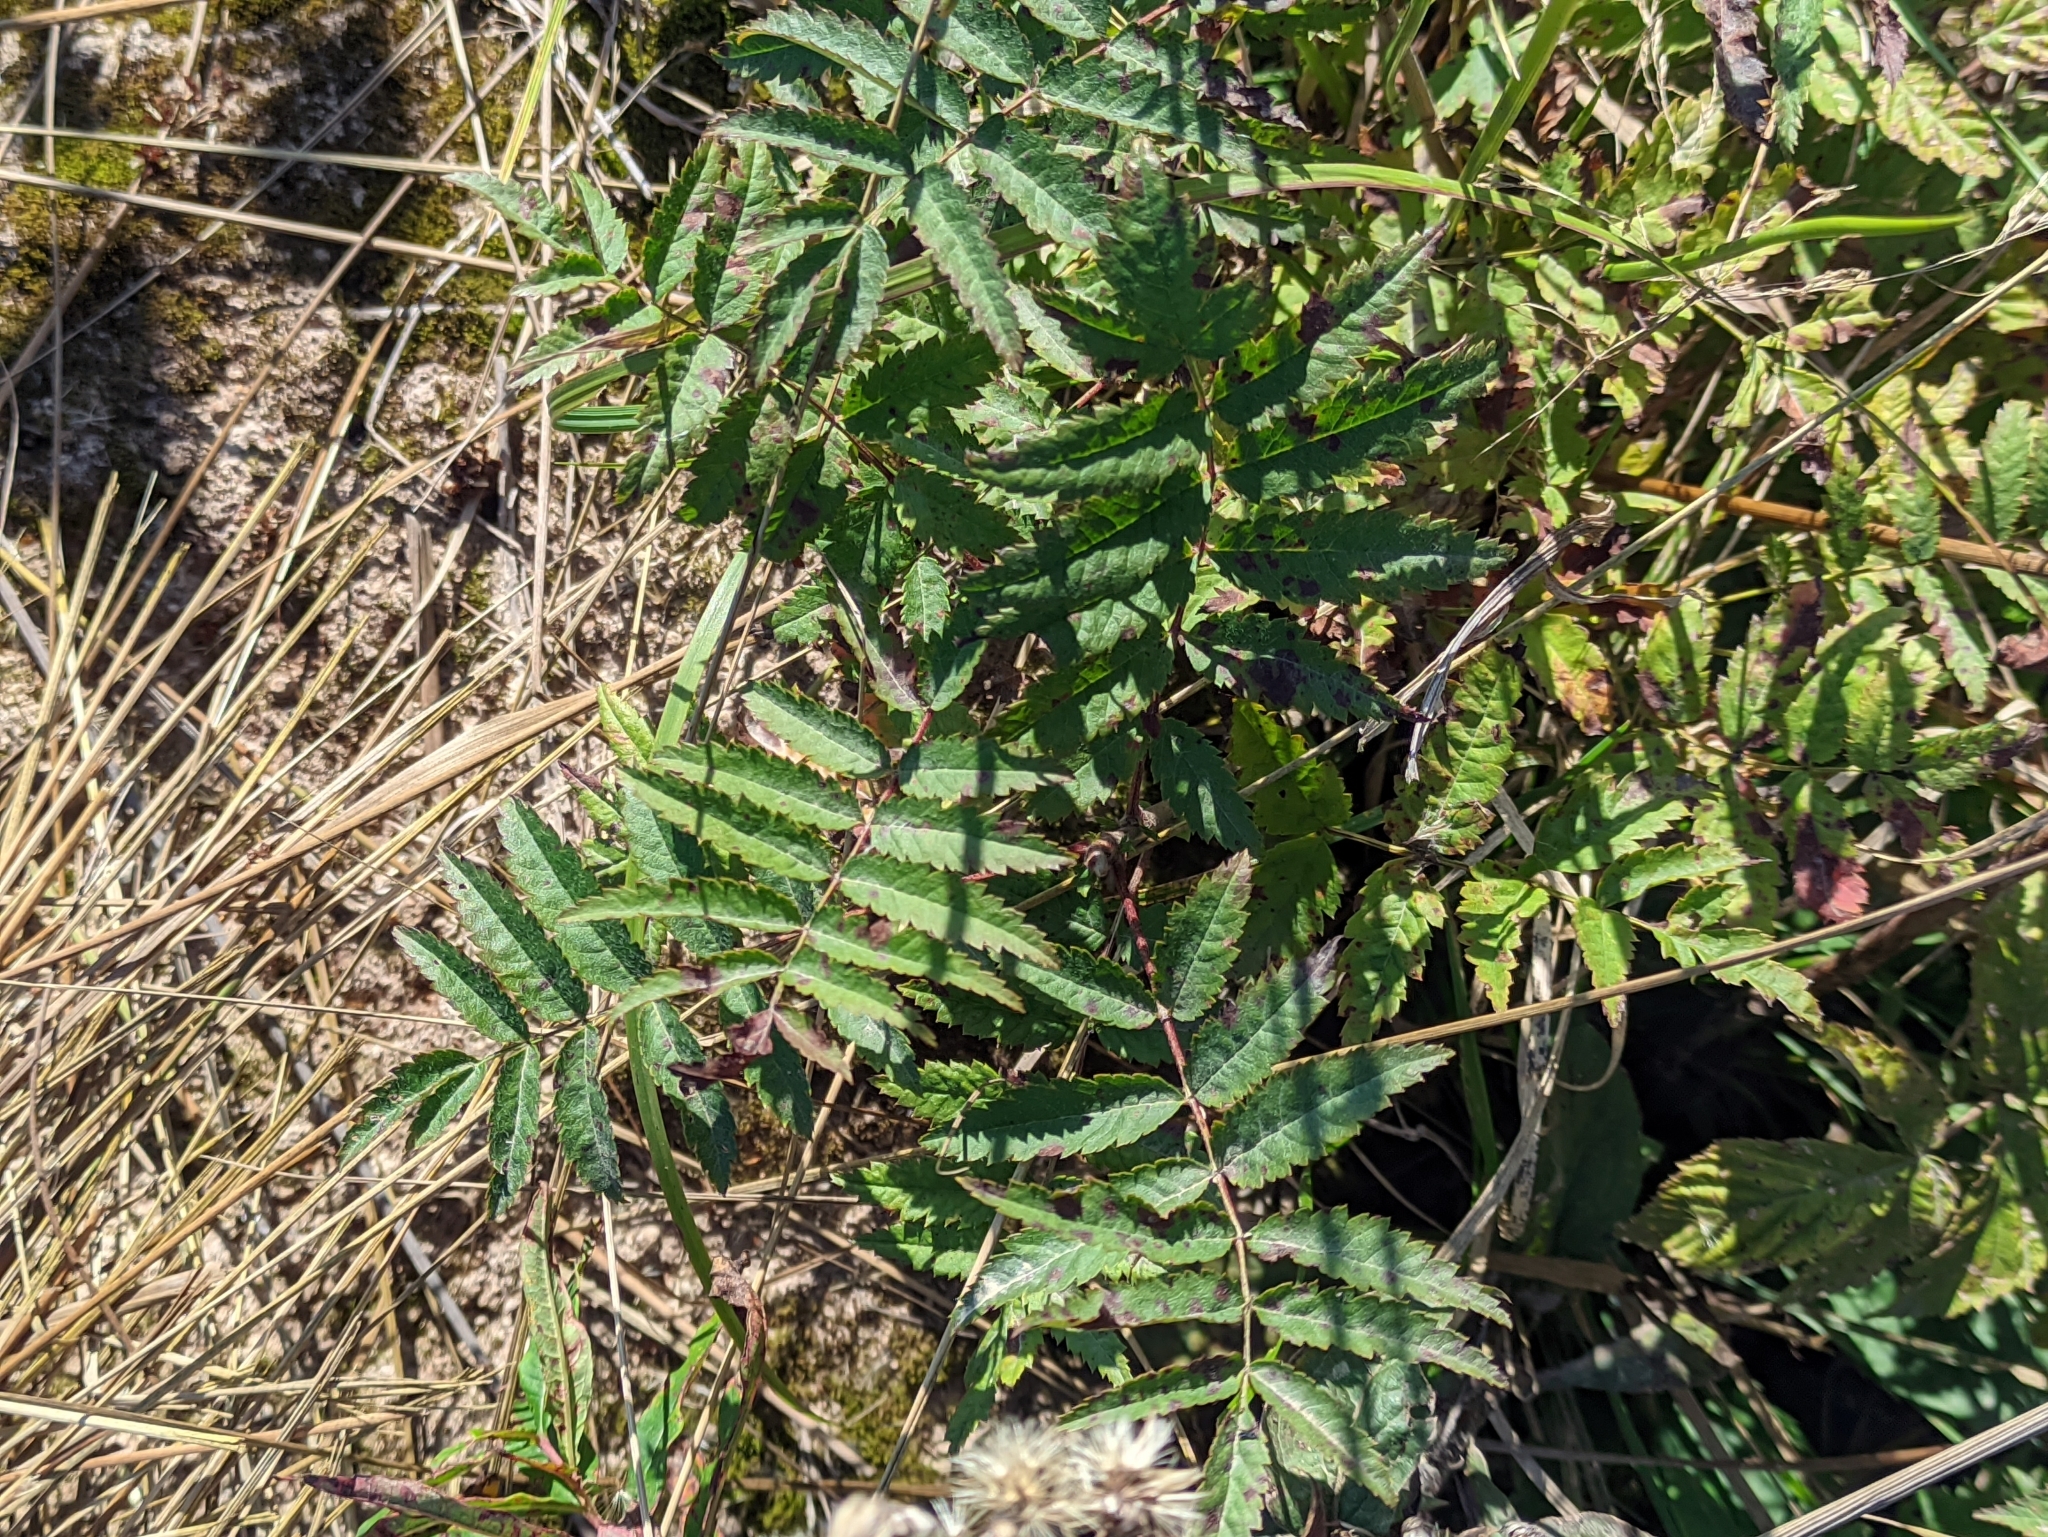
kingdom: Plantae
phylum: Tracheophyta
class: Magnoliopsida
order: Rosales
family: Rosaceae
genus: Sorbus
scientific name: Sorbus aucuparia
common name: Rowan
